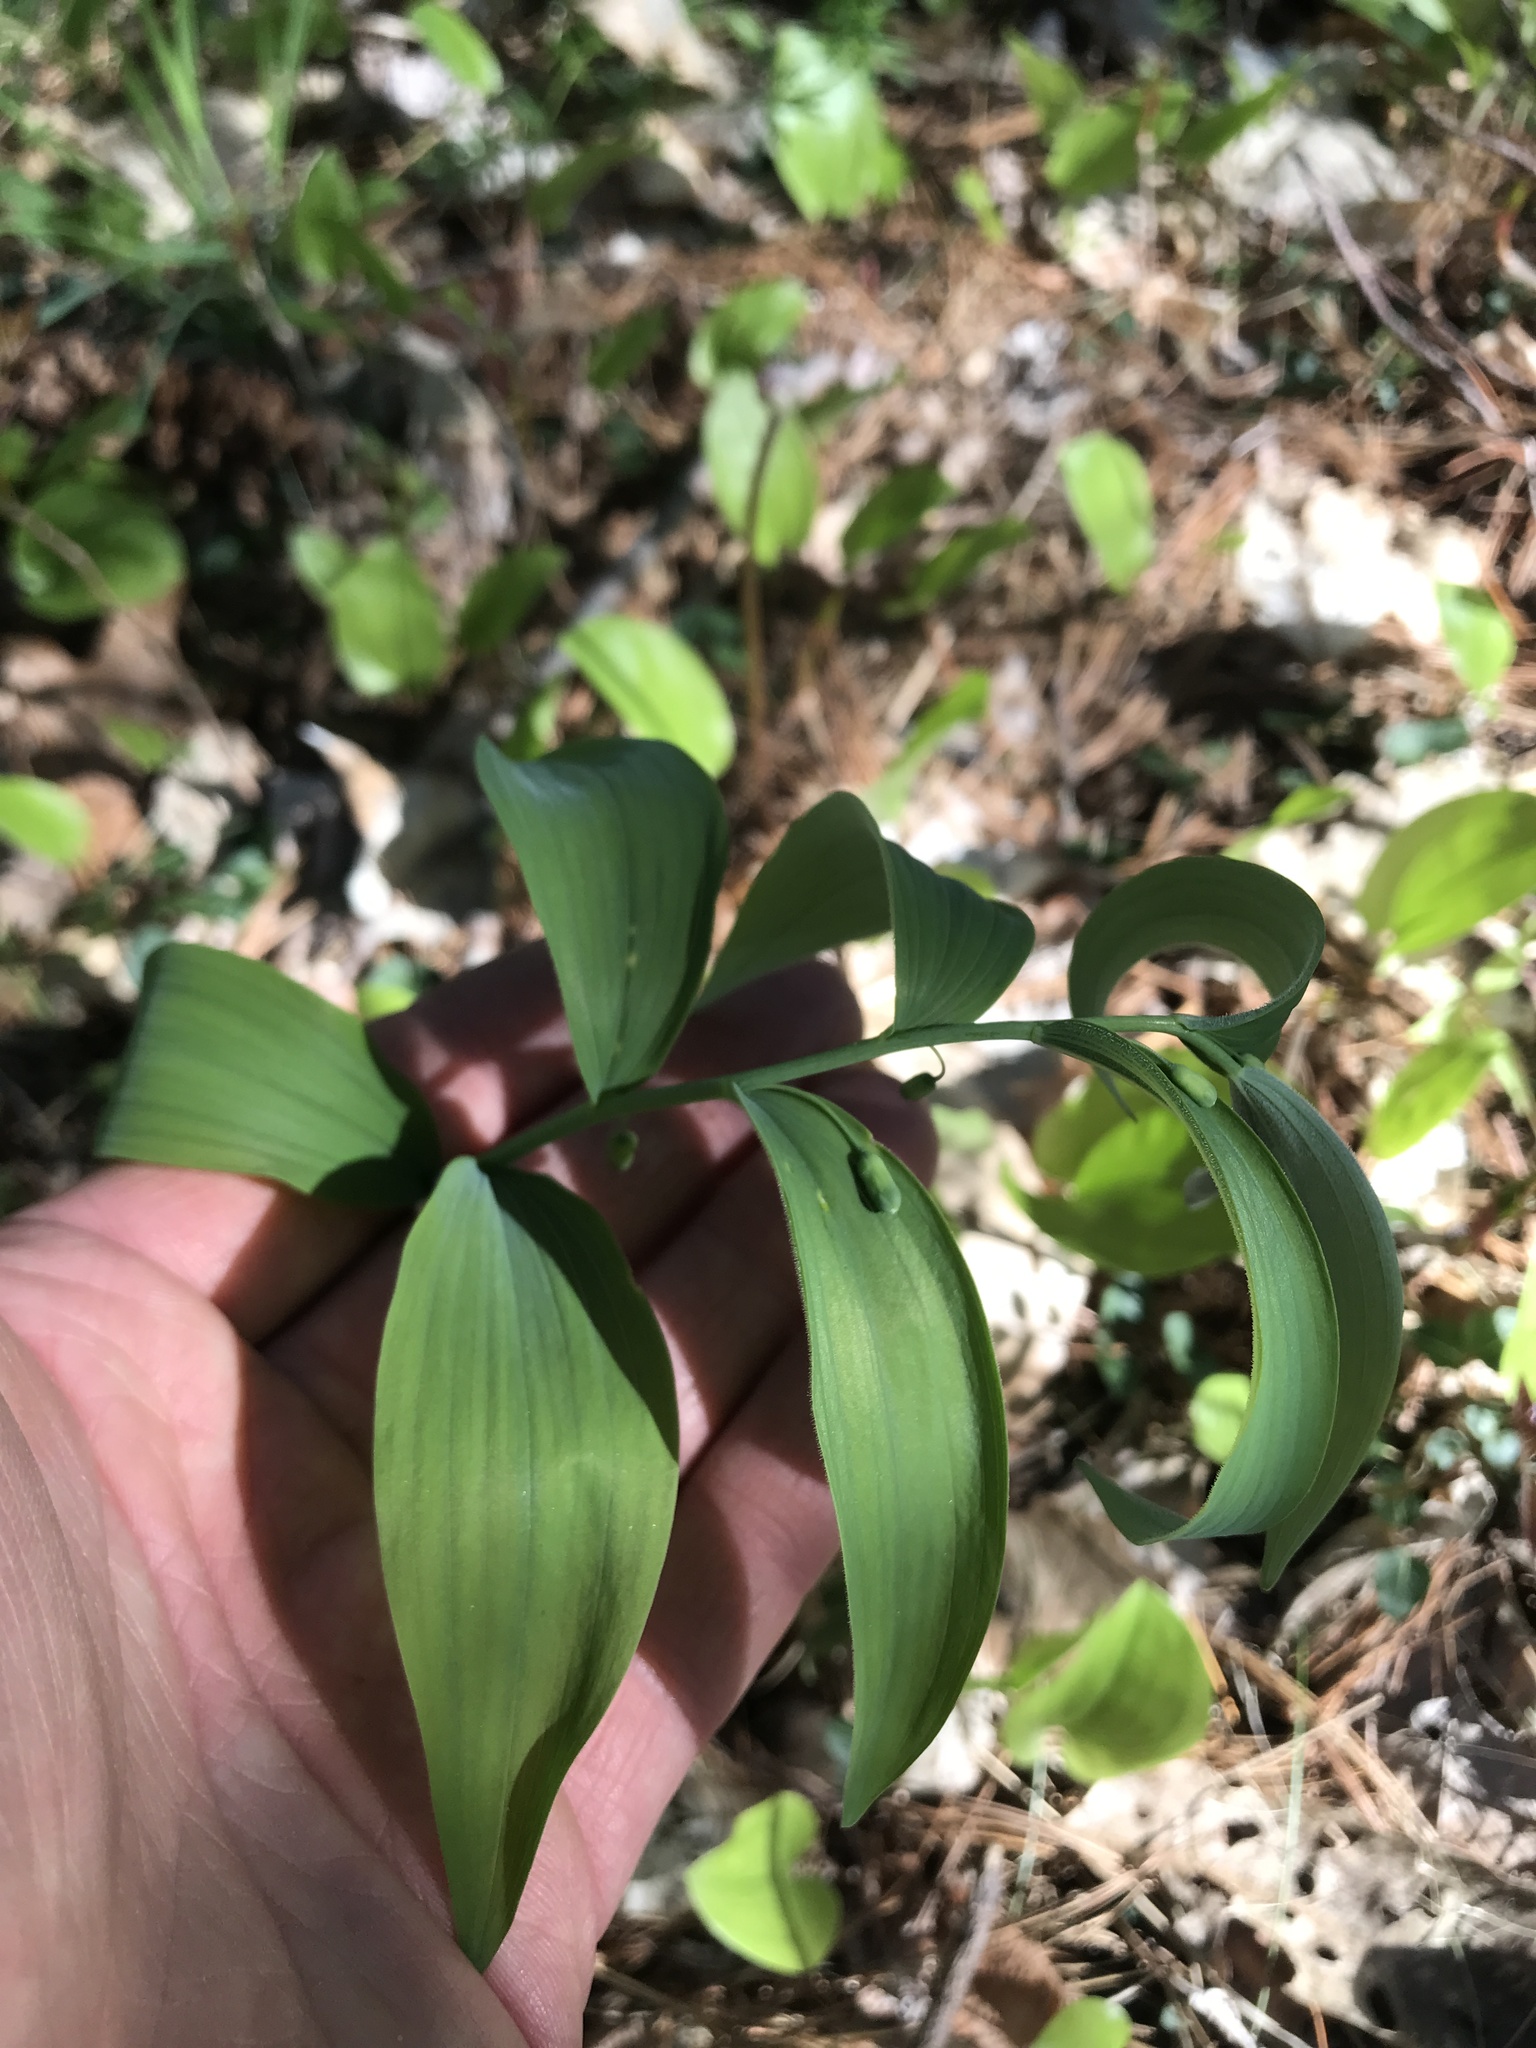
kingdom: Plantae
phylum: Tracheophyta
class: Liliopsida
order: Asparagales
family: Asparagaceae
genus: Polygonatum
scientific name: Polygonatum pubescens
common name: Downy solomon's seal
